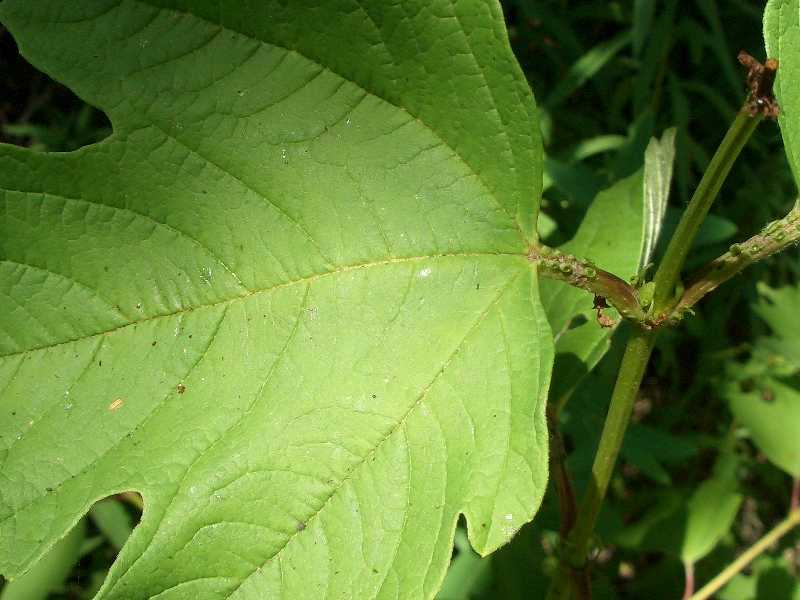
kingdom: Plantae
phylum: Tracheophyta
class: Magnoliopsida
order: Dipsacales
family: Viburnaceae
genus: Viburnum
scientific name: Viburnum opulus
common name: Guelder-rose
